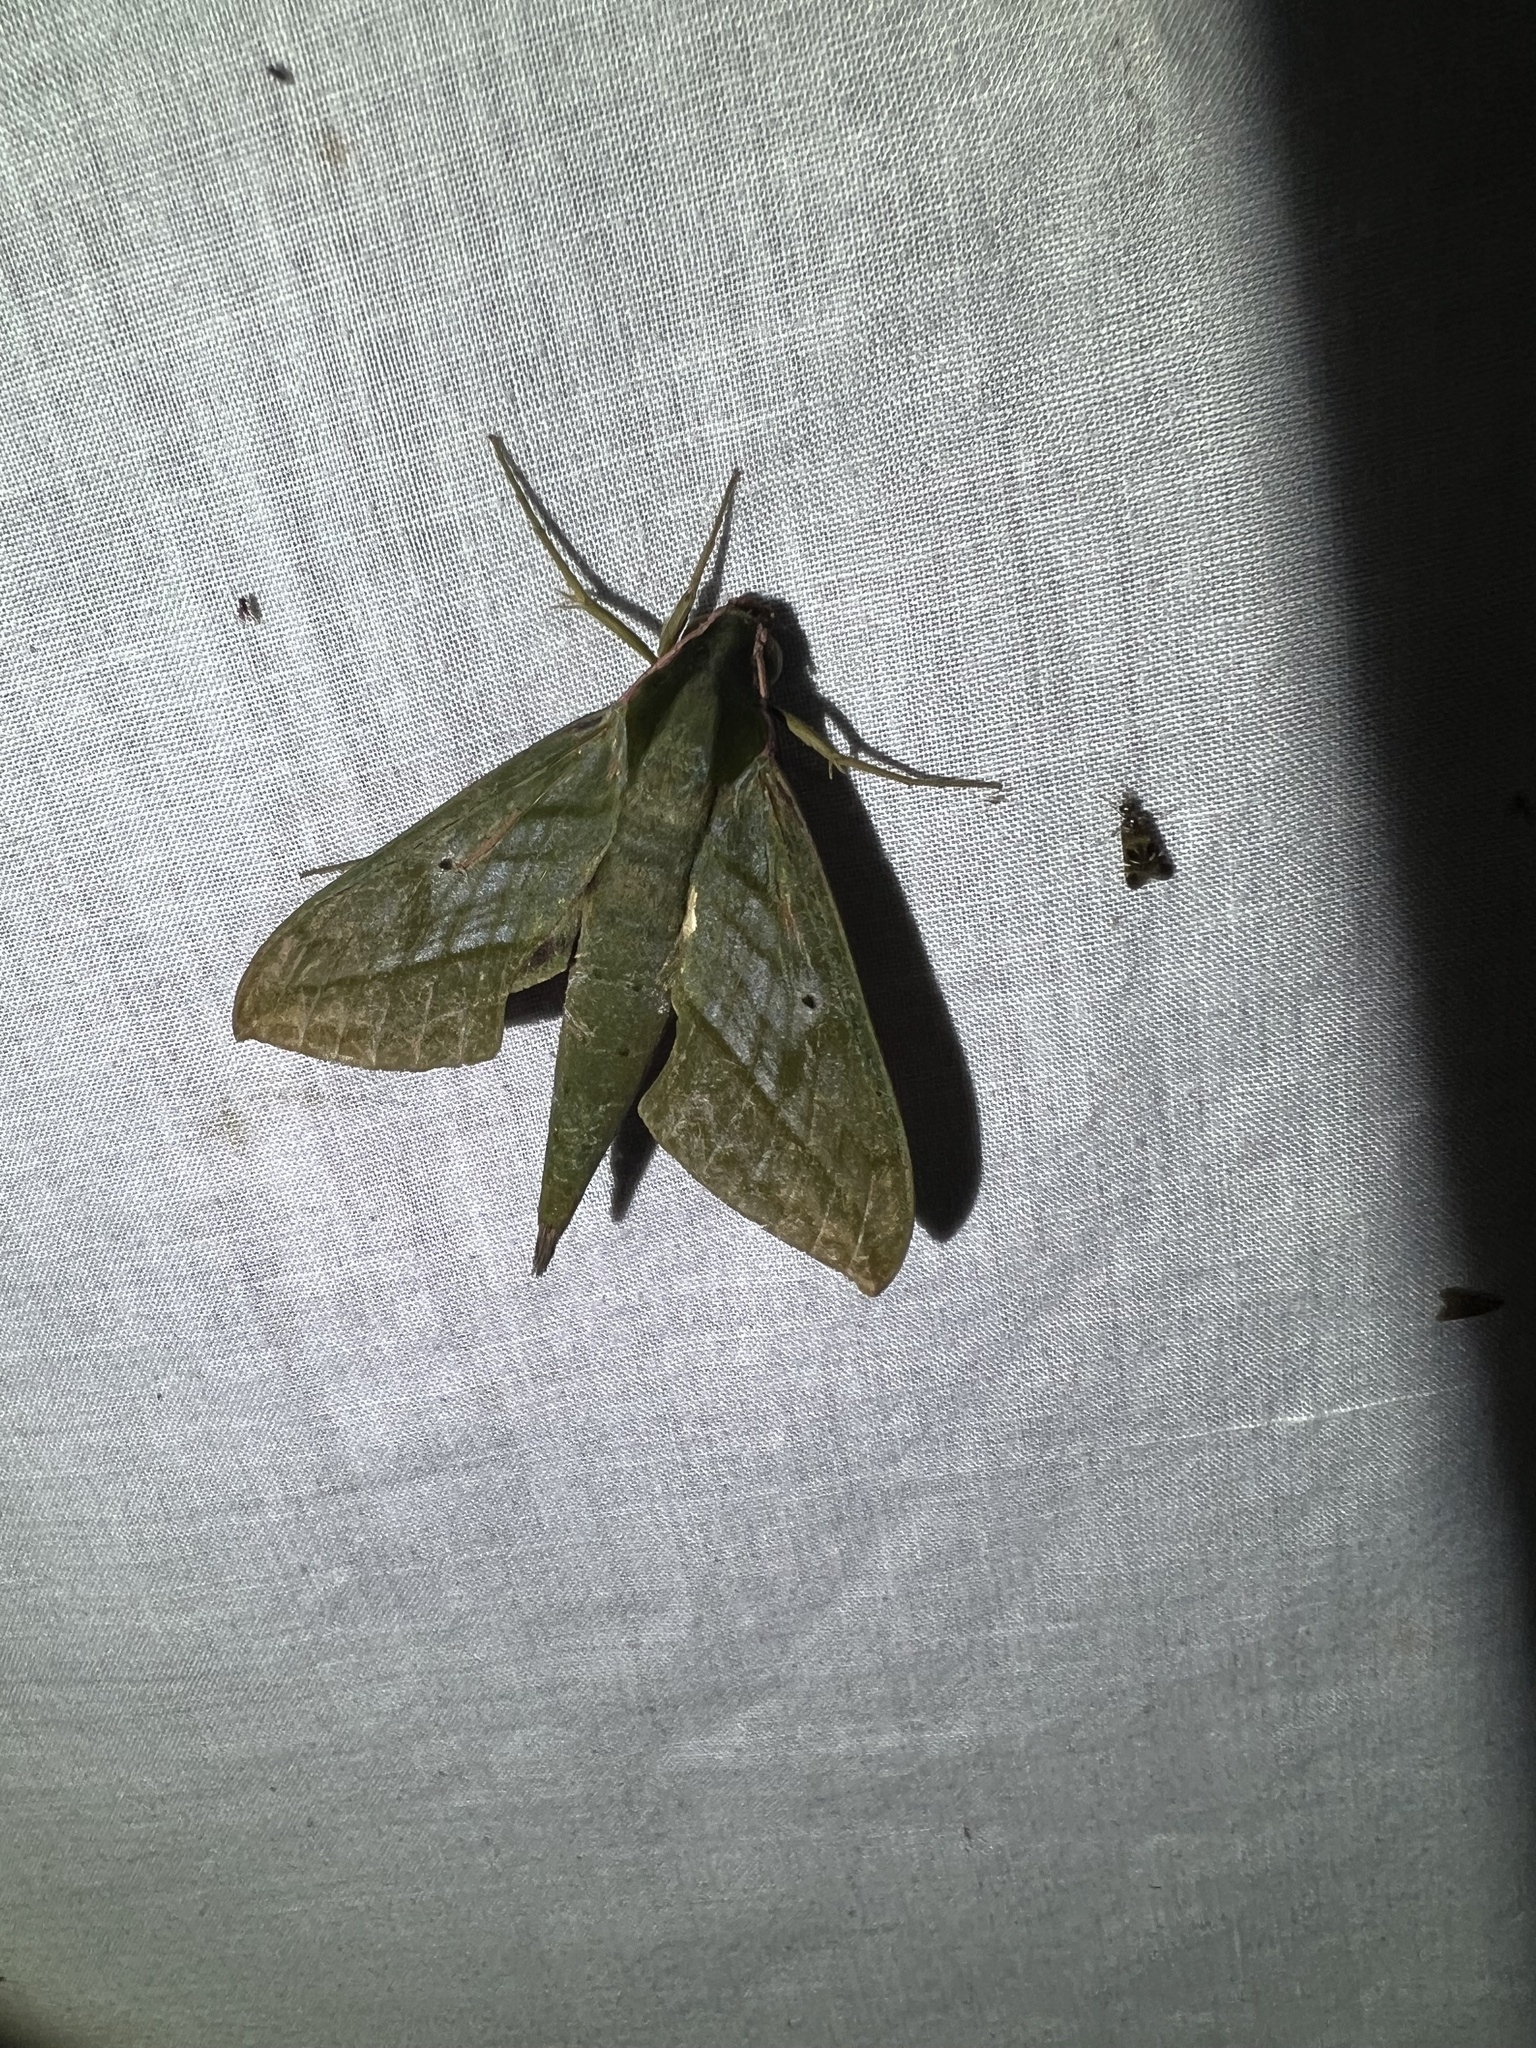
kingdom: Animalia
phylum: Arthropoda
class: Insecta
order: Lepidoptera
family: Sphingidae
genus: Xylophanes
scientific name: Xylophanes belti
